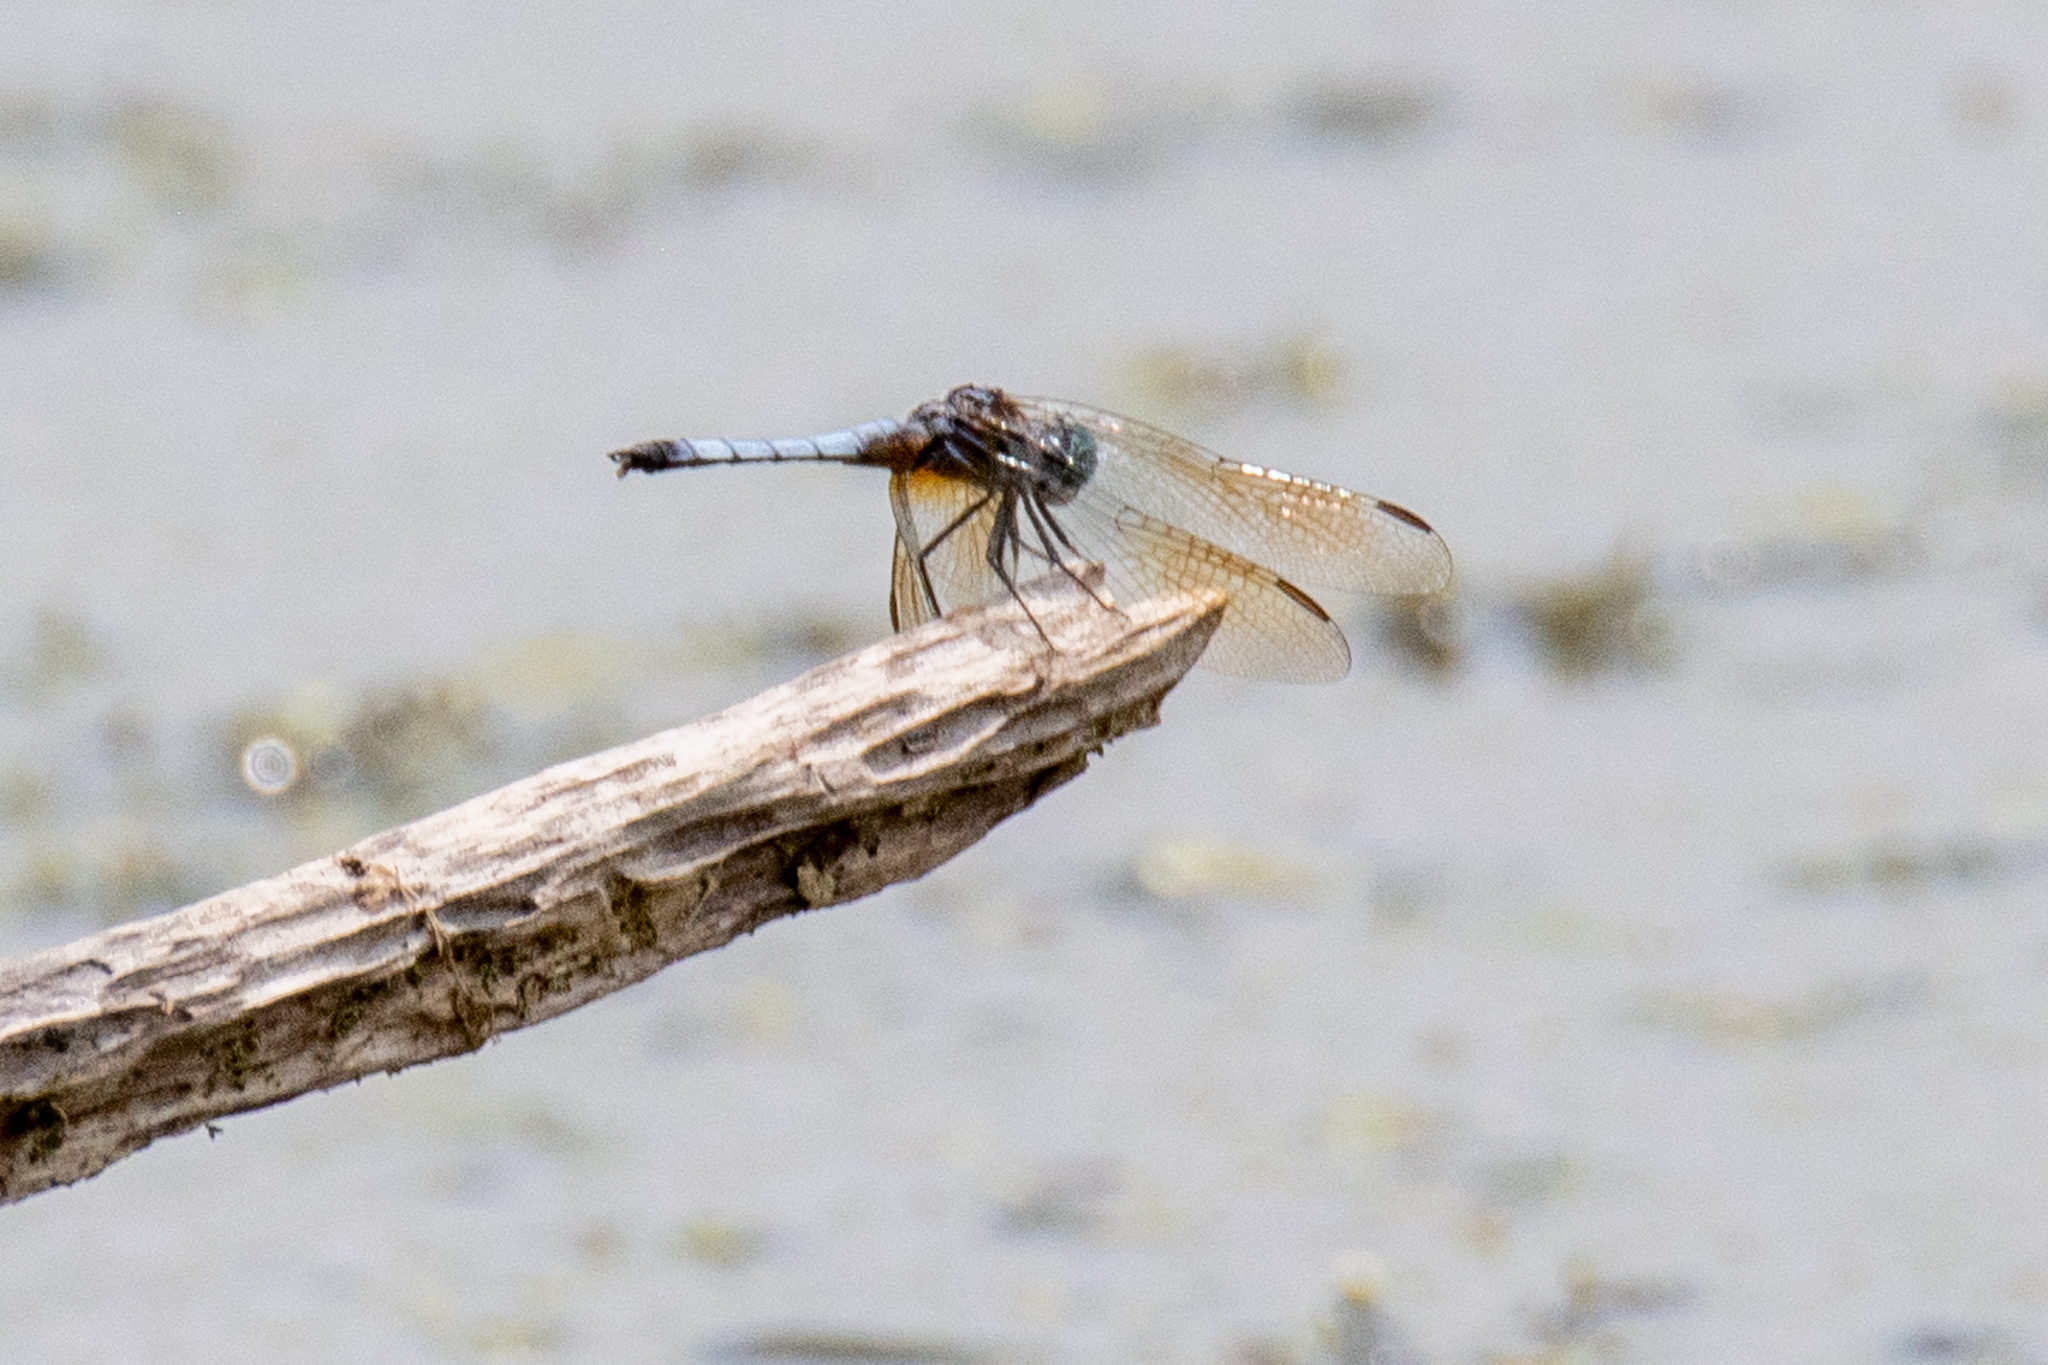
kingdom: Animalia
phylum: Arthropoda
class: Insecta
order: Odonata
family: Libellulidae
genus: Pachydiplax
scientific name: Pachydiplax longipennis
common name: Blue dasher
